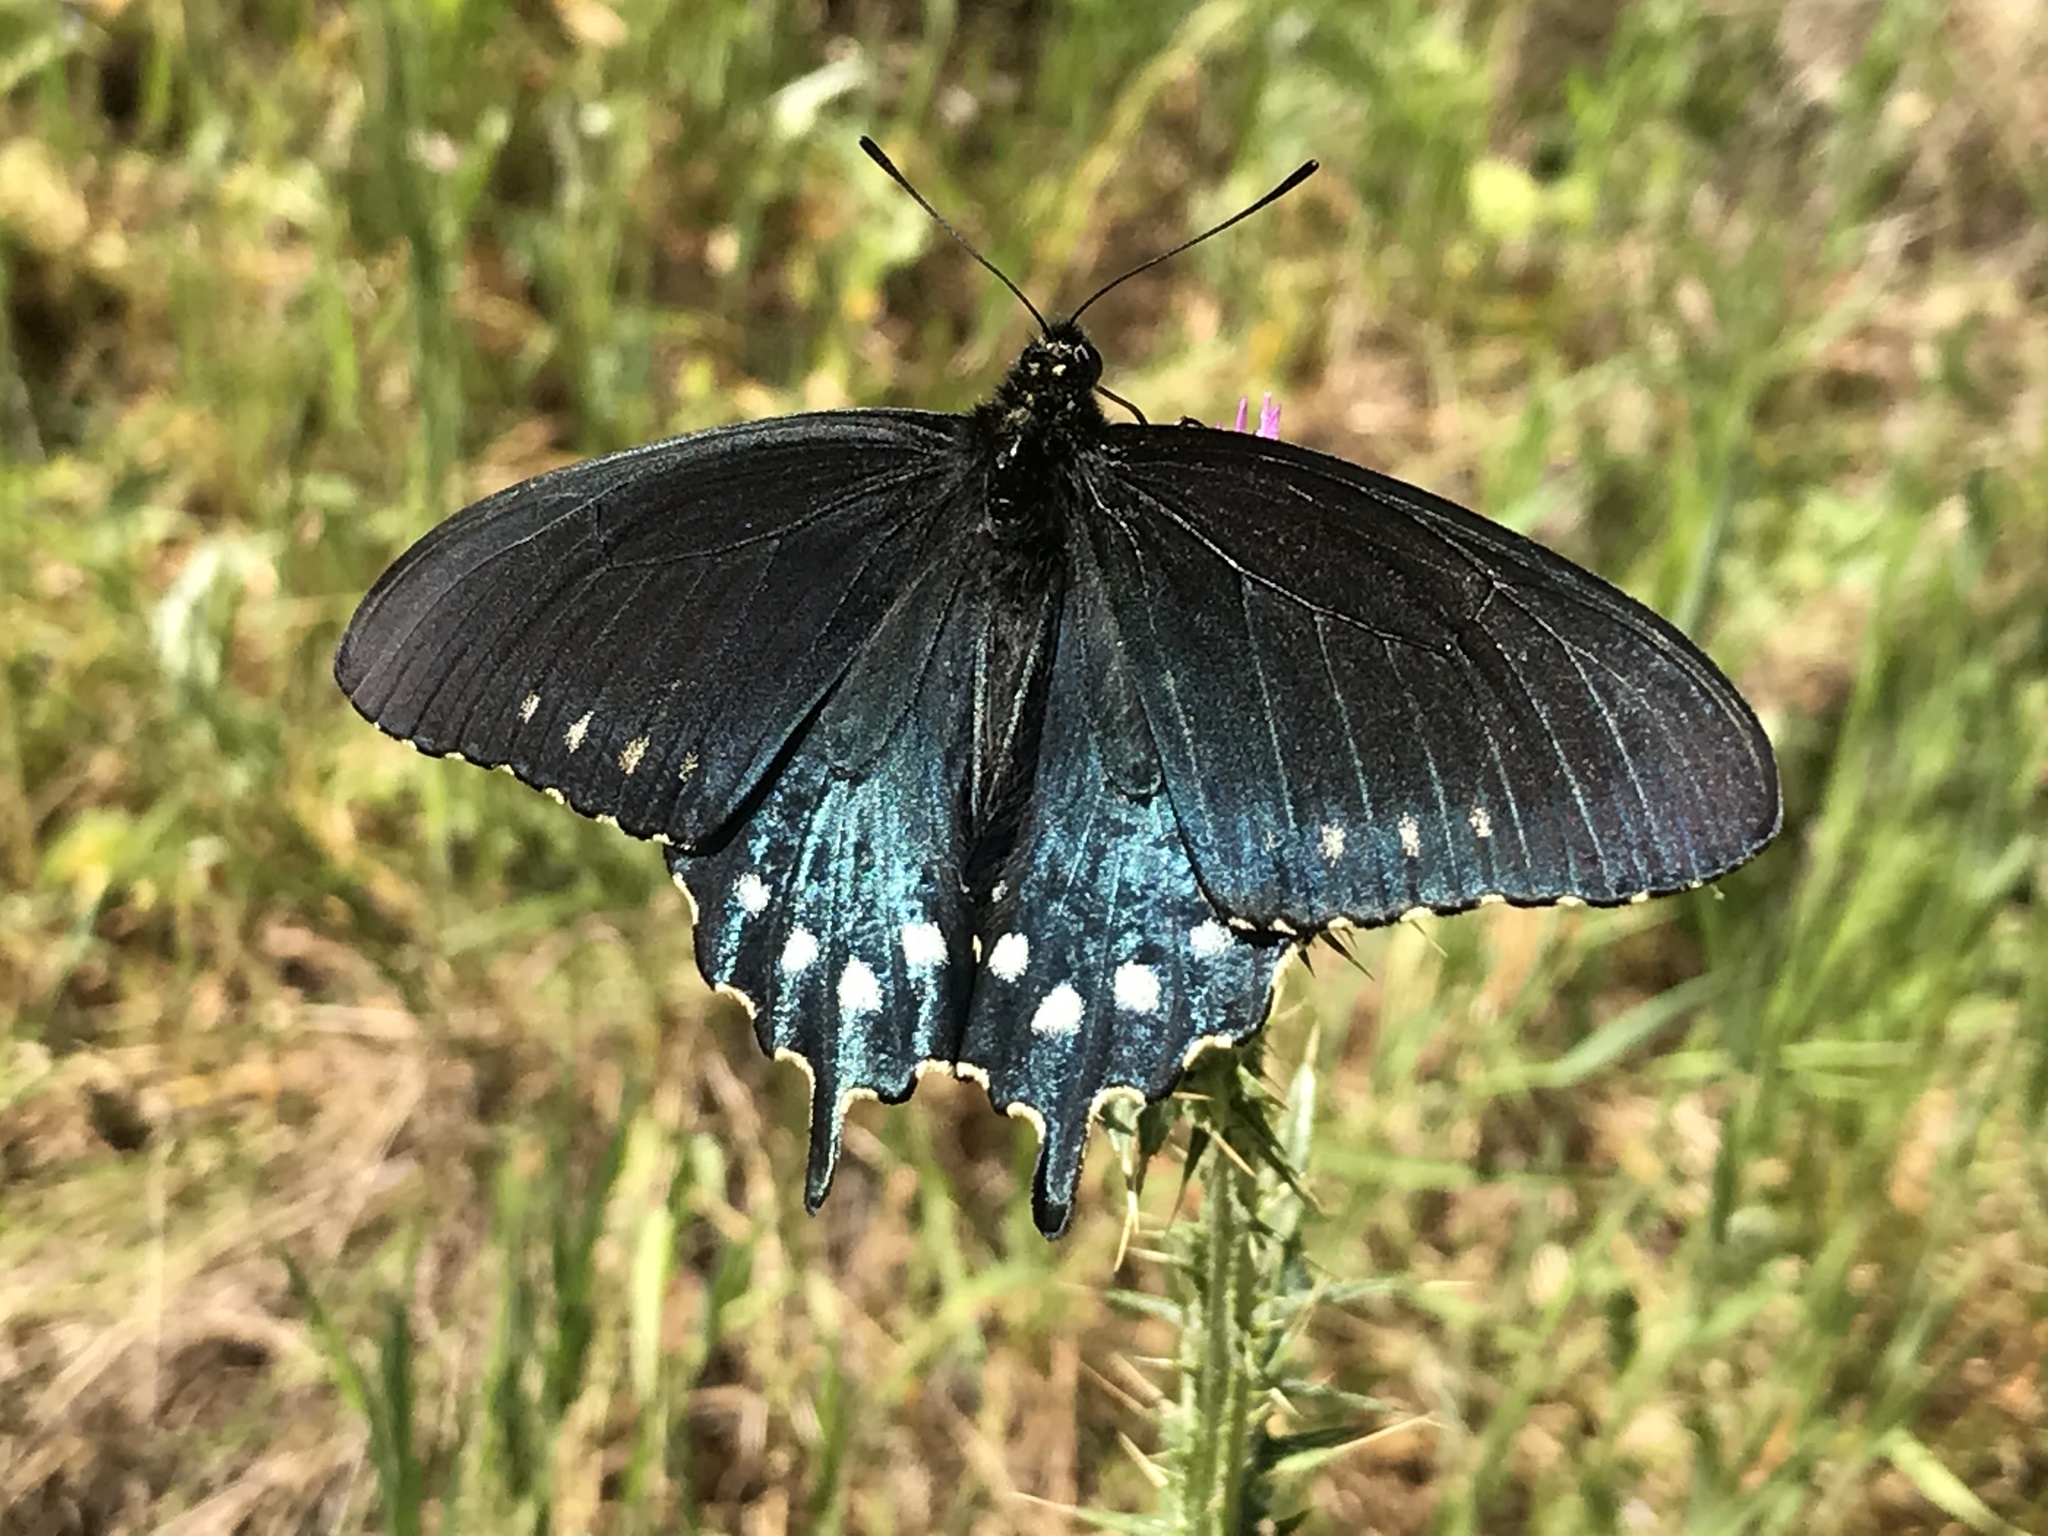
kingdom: Animalia
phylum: Arthropoda
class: Insecta
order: Lepidoptera
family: Papilionidae
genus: Battus
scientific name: Battus philenor
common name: Pipevine swallowtail
